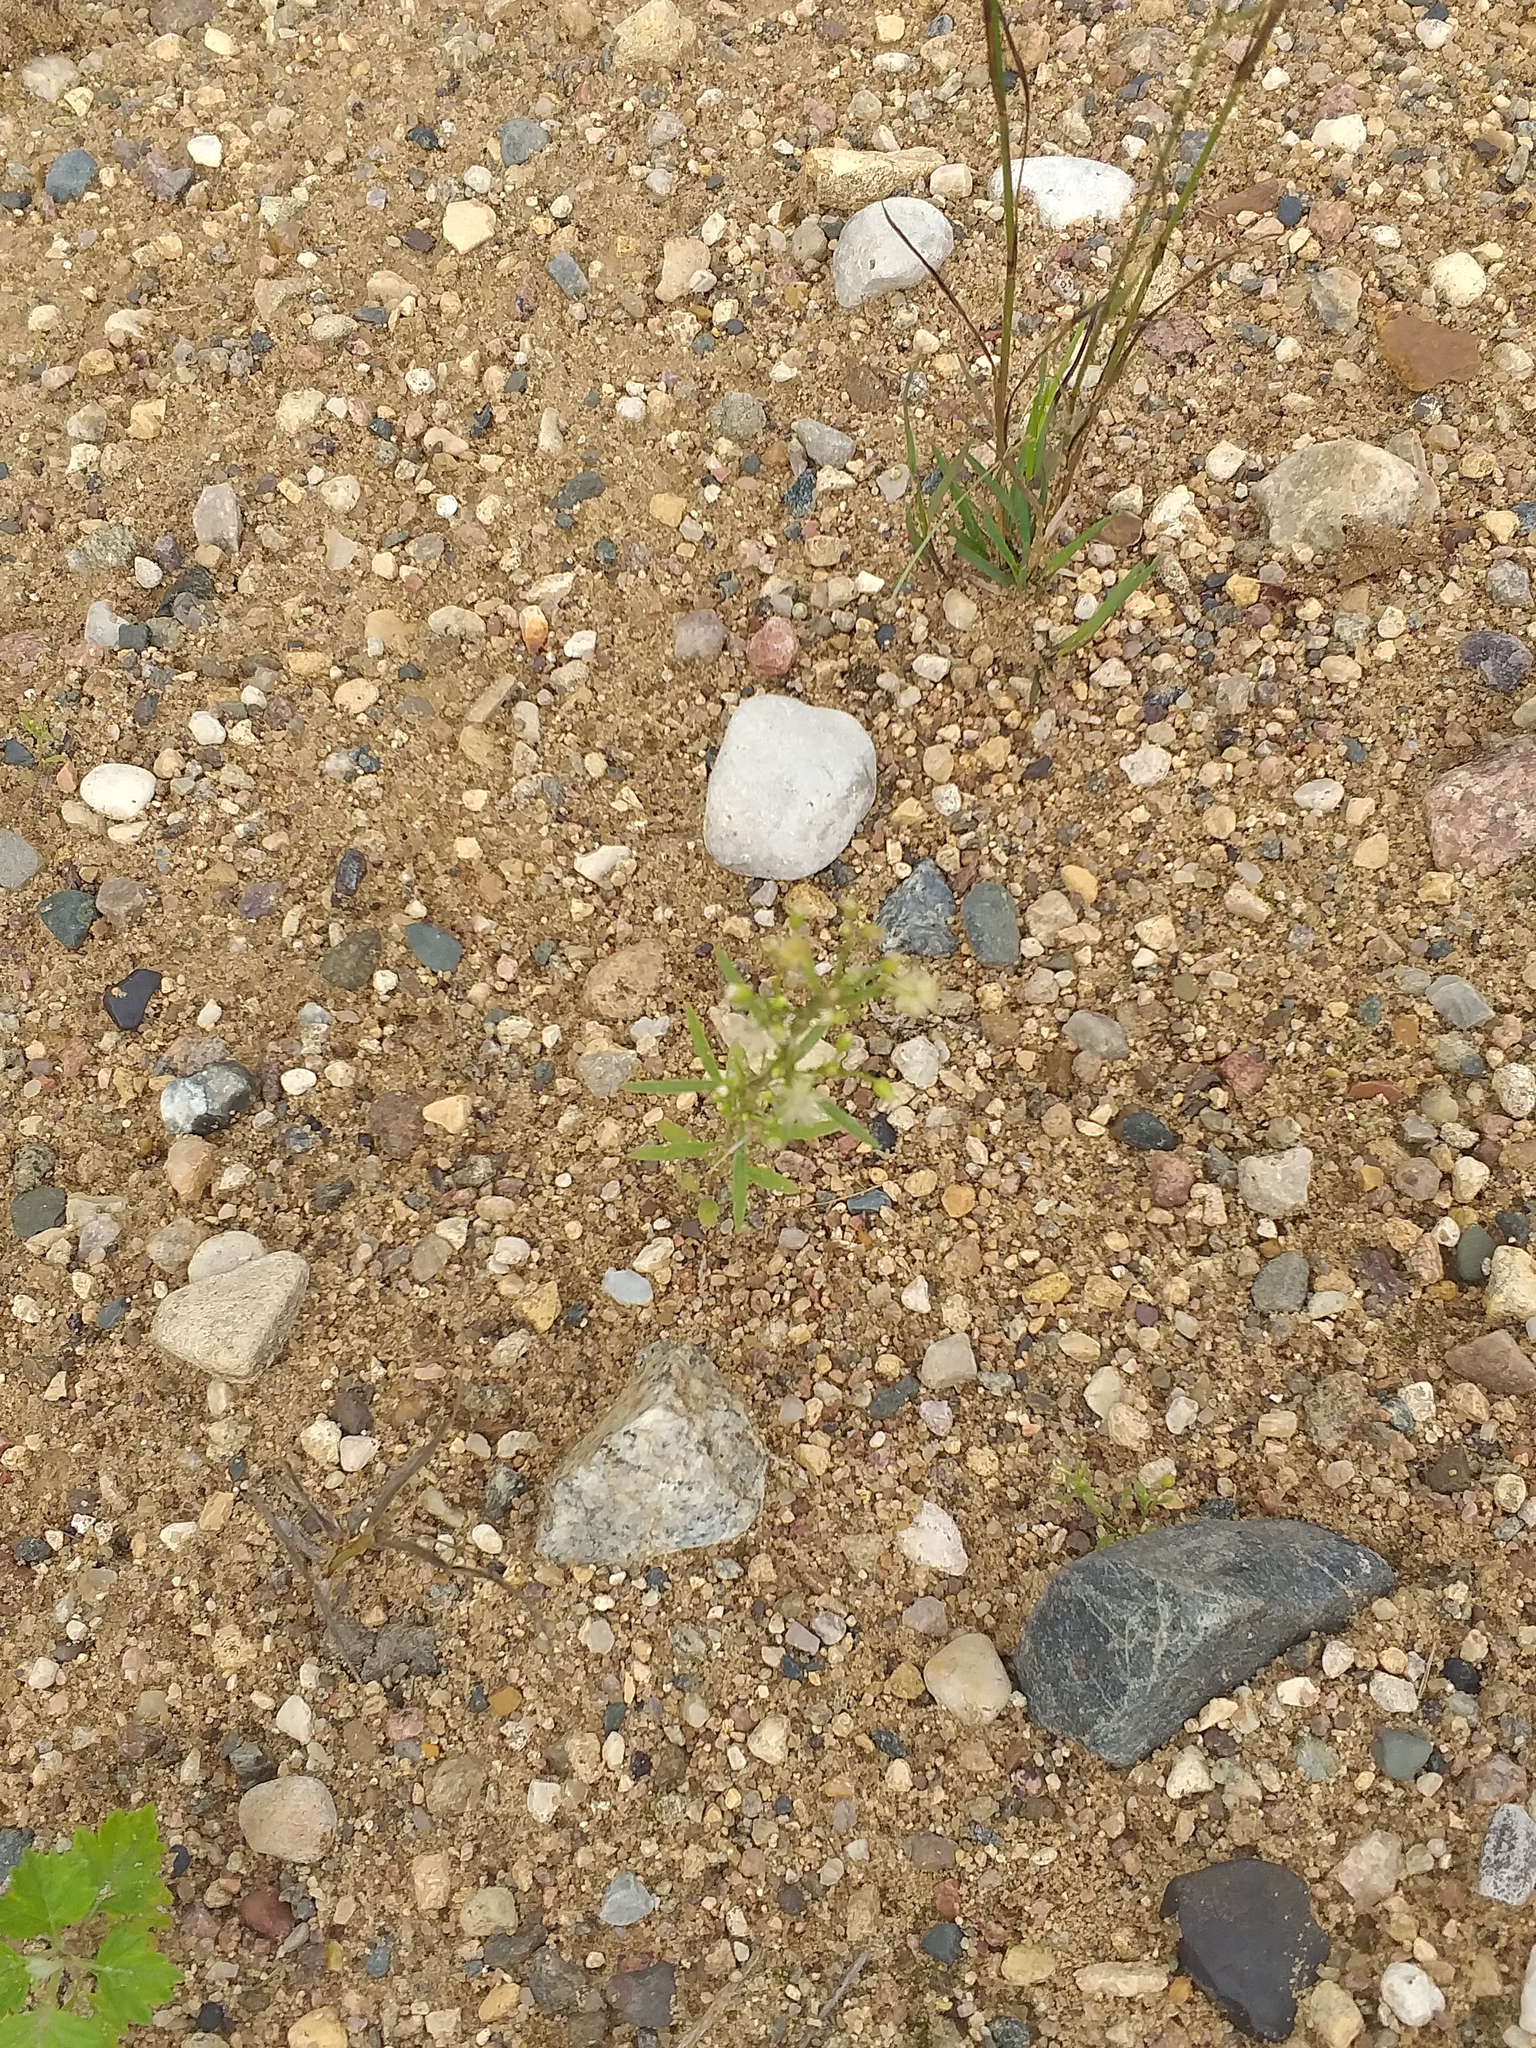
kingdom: Plantae
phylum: Tracheophyta
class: Magnoliopsida
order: Asterales
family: Asteraceae
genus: Erigeron
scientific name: Erigeron canadensis
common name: Canadian fleabane
